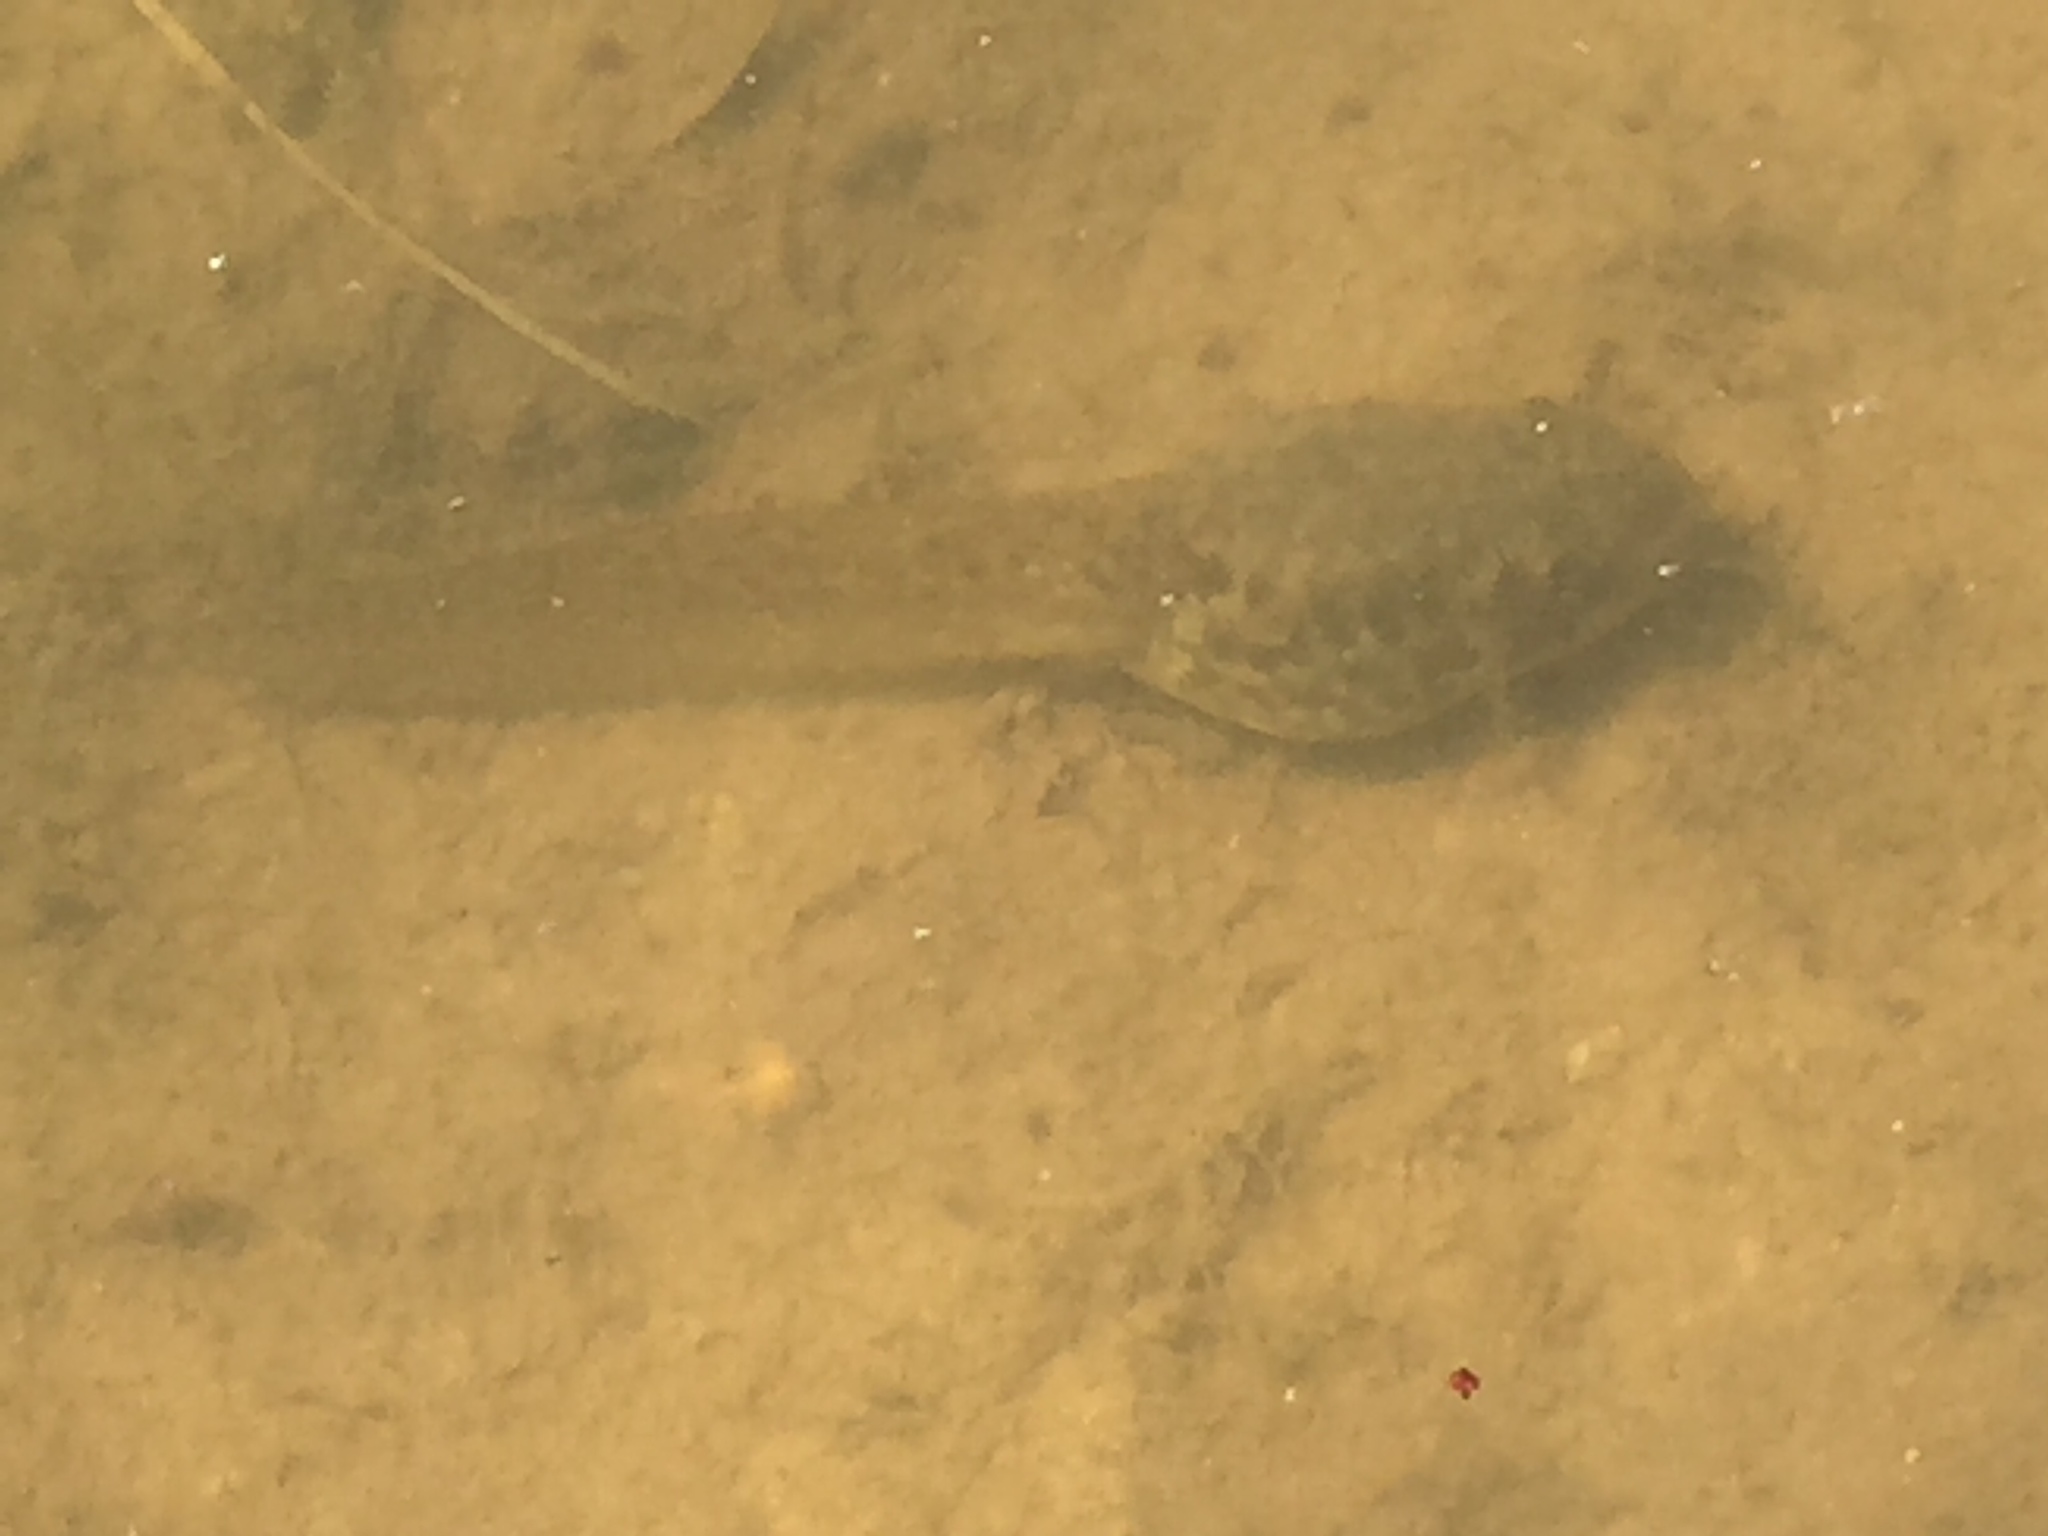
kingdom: Animalia
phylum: Chordata
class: Amphibia
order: Anura
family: Ranidae
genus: Lithobates
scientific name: Lithobates catesbeianus
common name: American bullfrog
